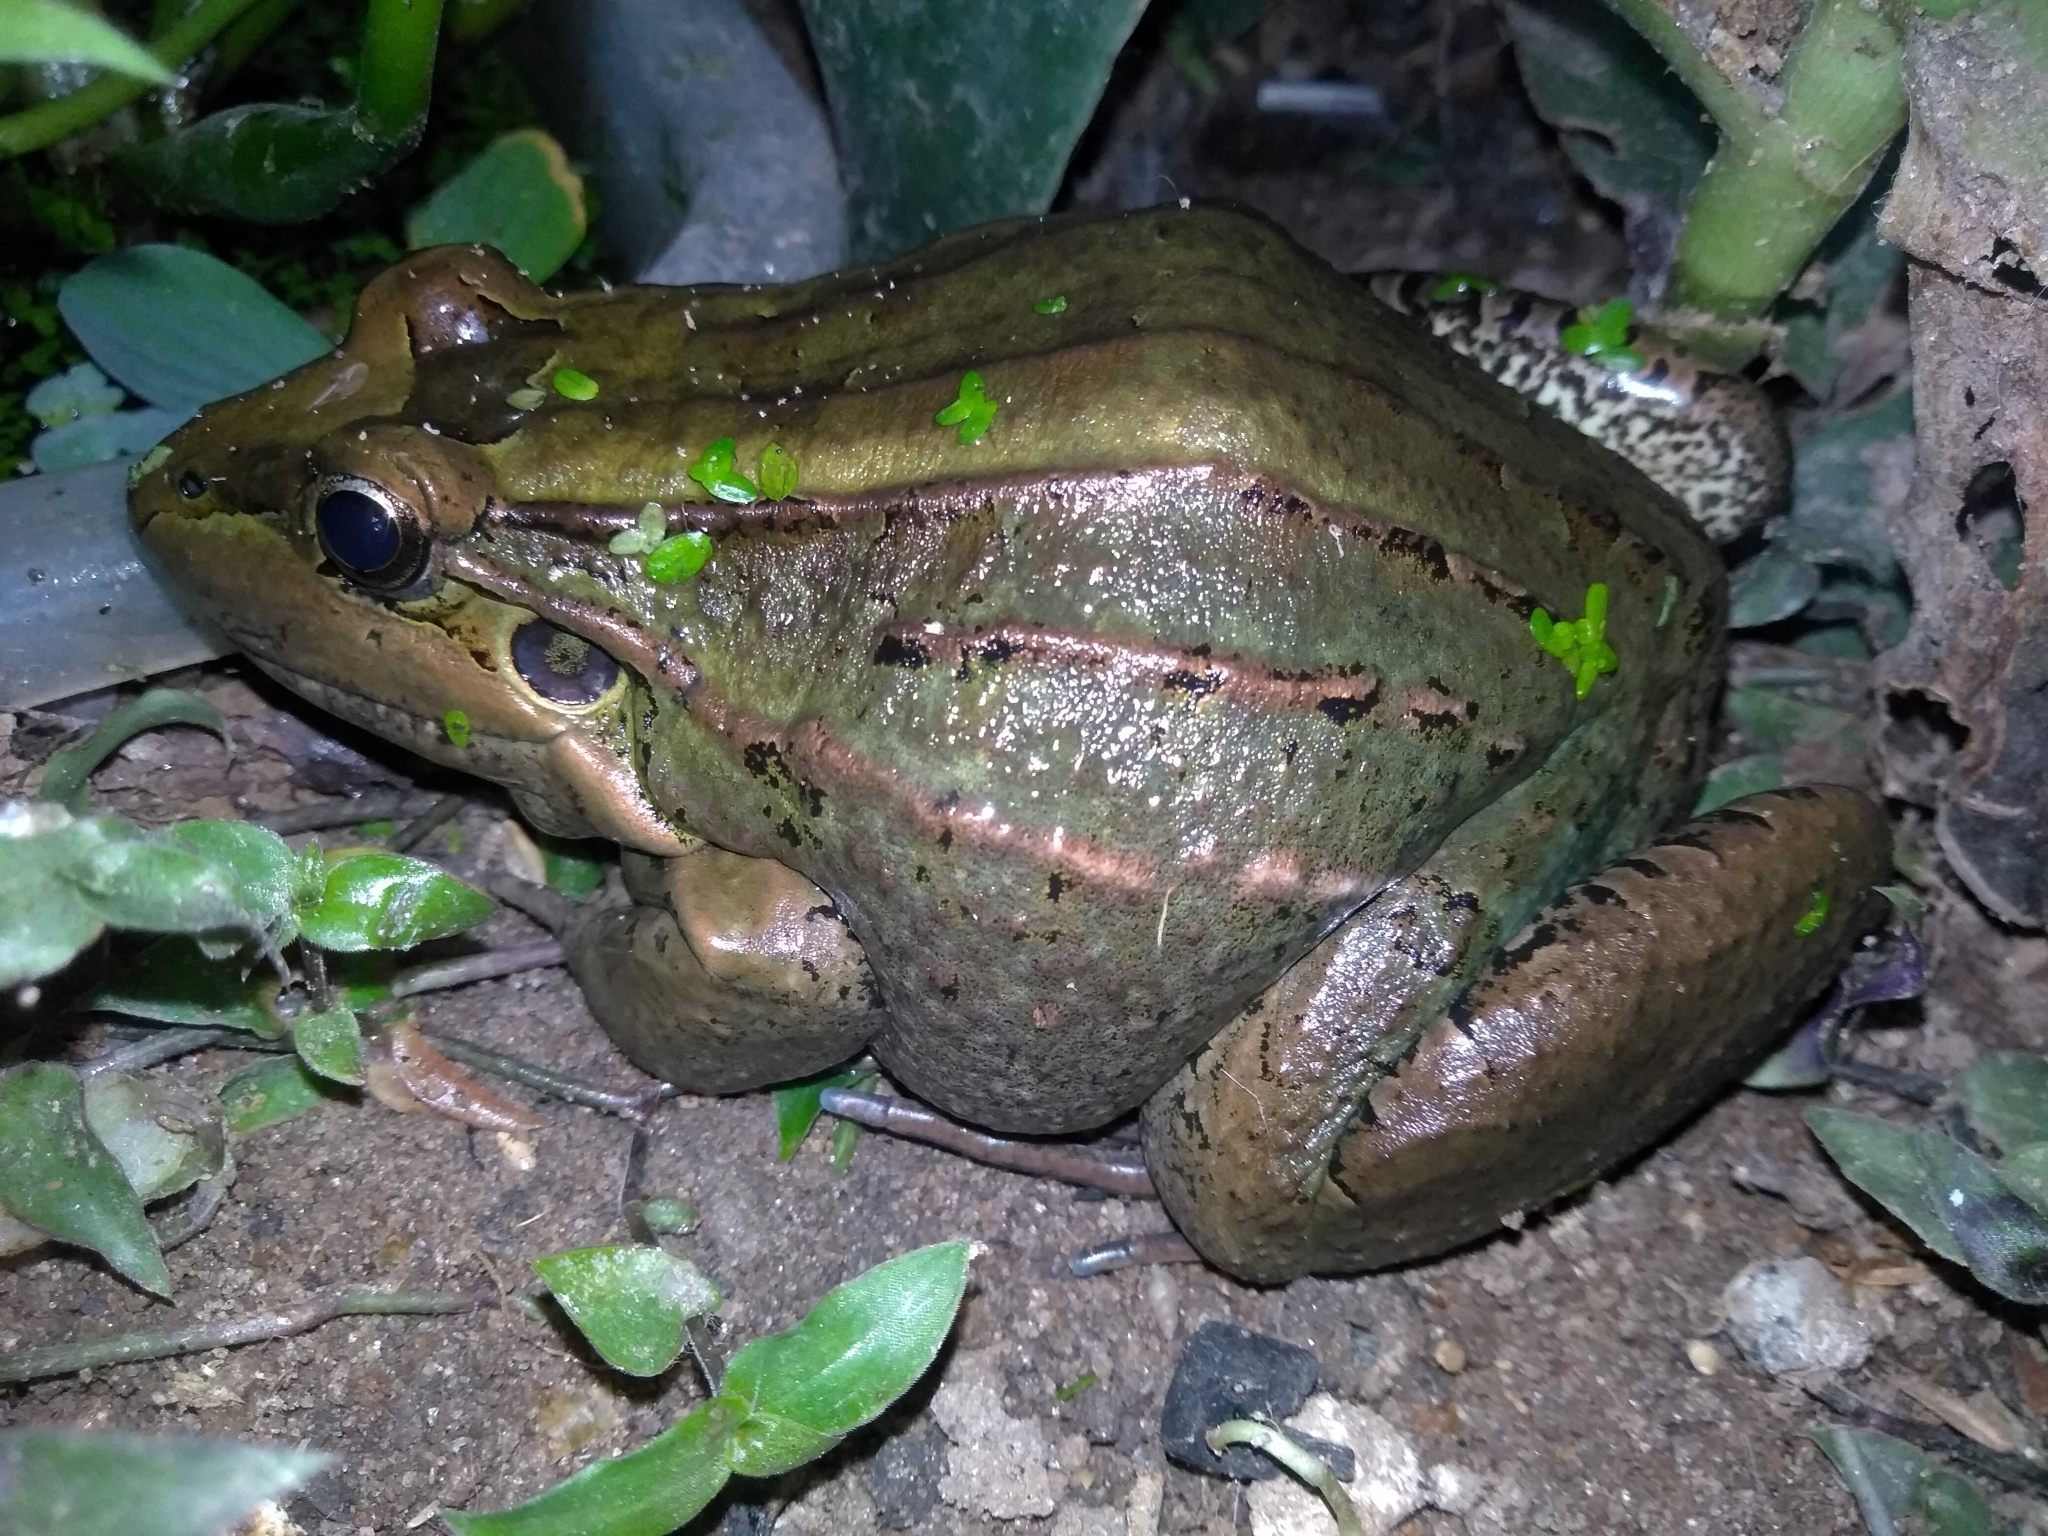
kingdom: Animalia
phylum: Chordata
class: Amphibia
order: Anura
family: Leptodactylidae
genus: Leptodactylus
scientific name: Leptodactylus latrans
